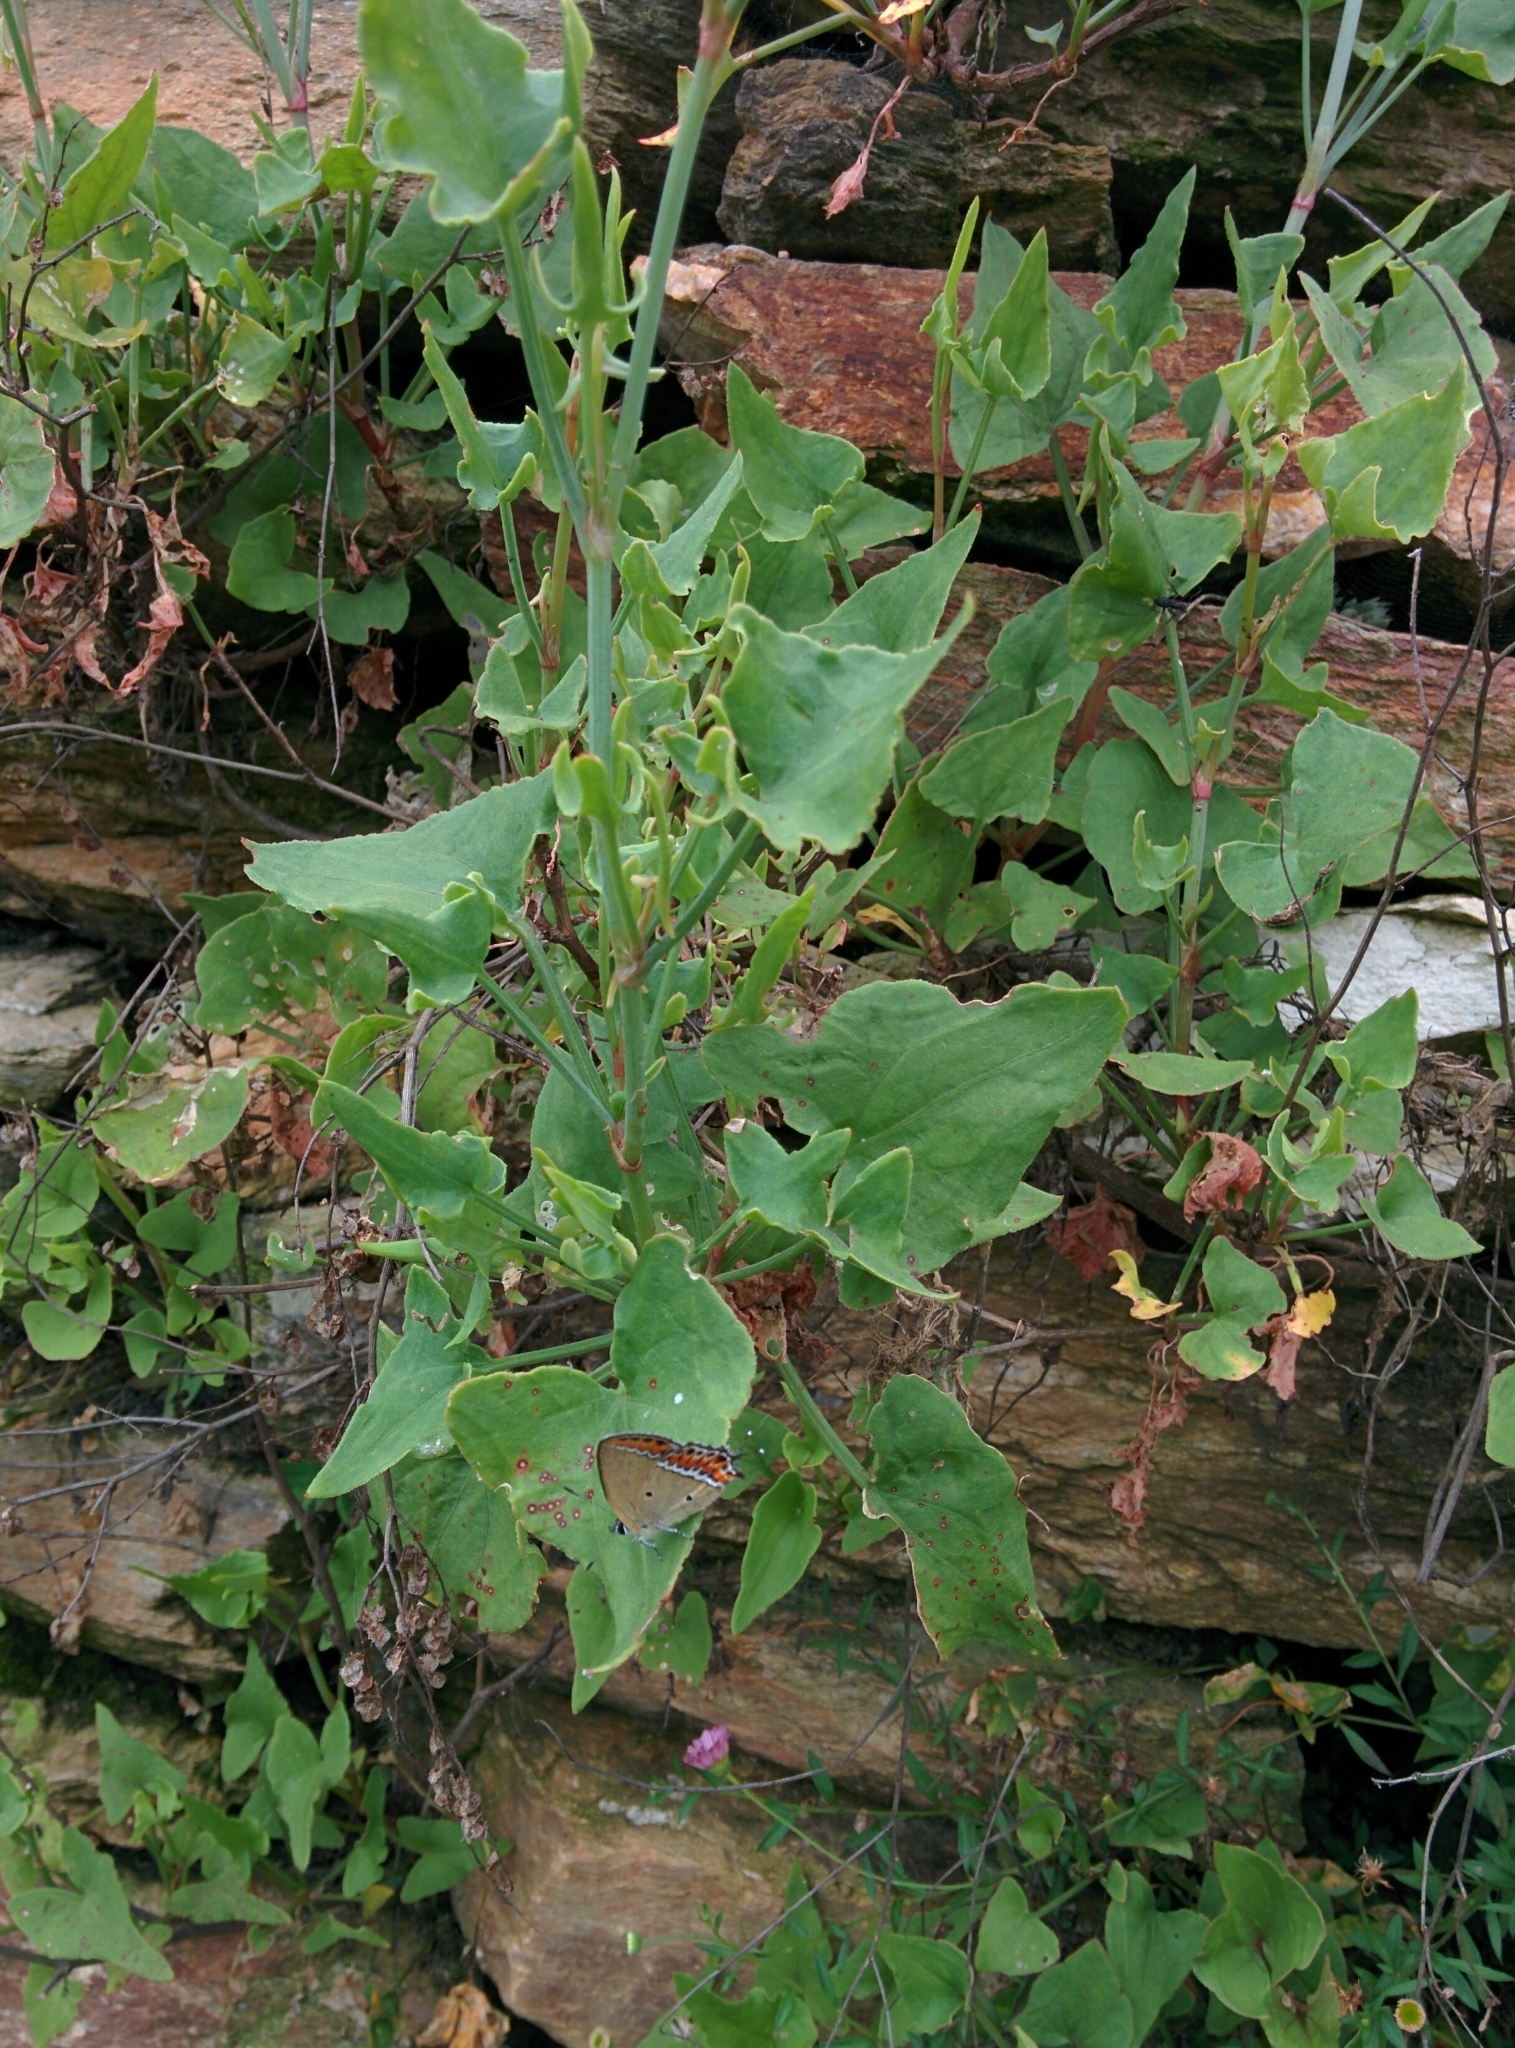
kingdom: Plantae
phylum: Tracheophyta
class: Magnoliopsida
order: Caryophyllales
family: Polygonaceae
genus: Rumex
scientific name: Rumex hastatus
